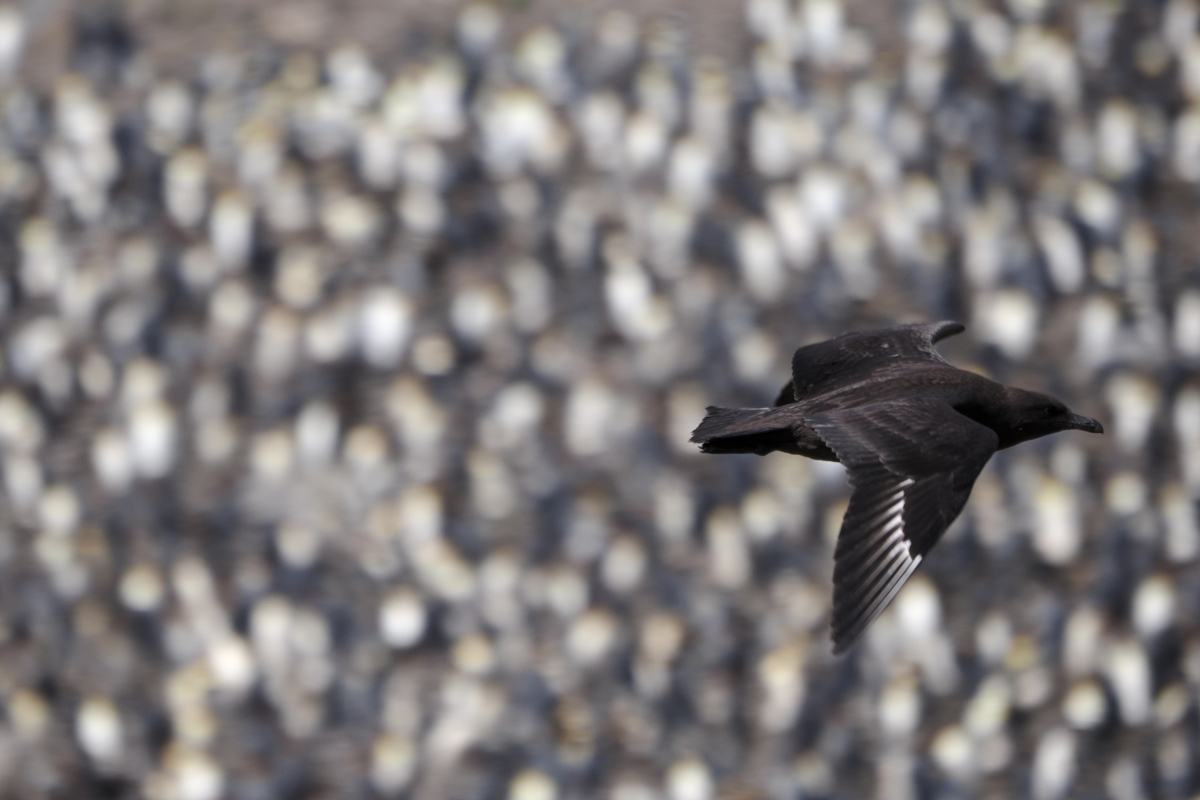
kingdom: Animalia
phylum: Chordata
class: Aves
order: Charadriiformes
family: Stercorariidae
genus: Stercorarius
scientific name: Stercorarius antarcticus
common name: Brown skua
